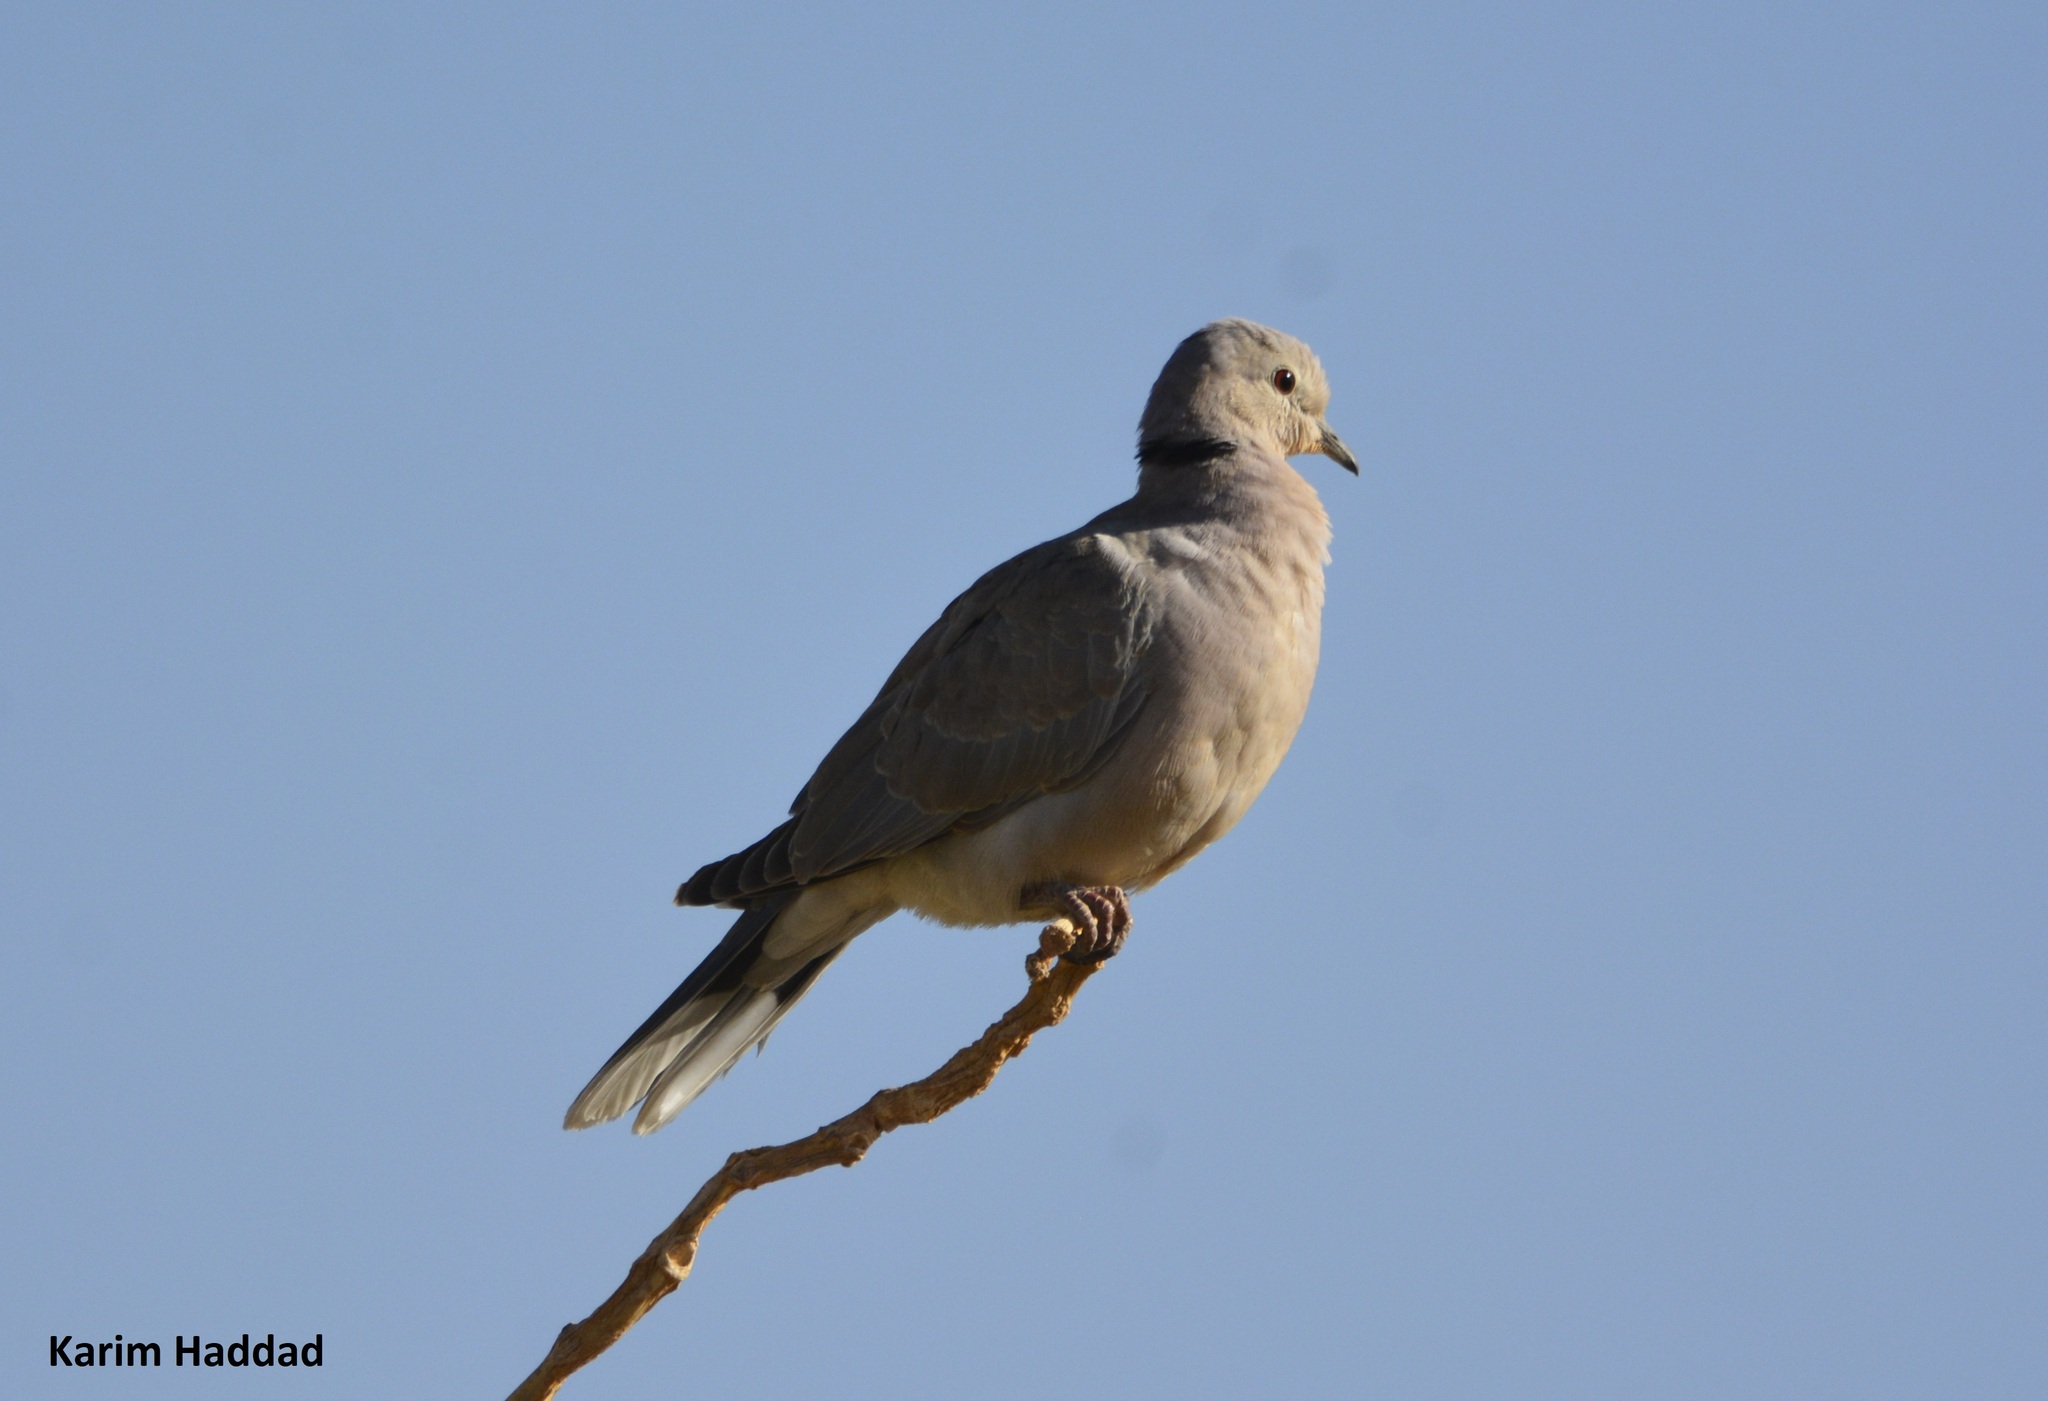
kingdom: Animalia
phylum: Chordata
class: Aves
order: Columbiformes
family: Columbidae
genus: Streptopelia
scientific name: Streptopelia roseogrisea
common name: African collared dove
